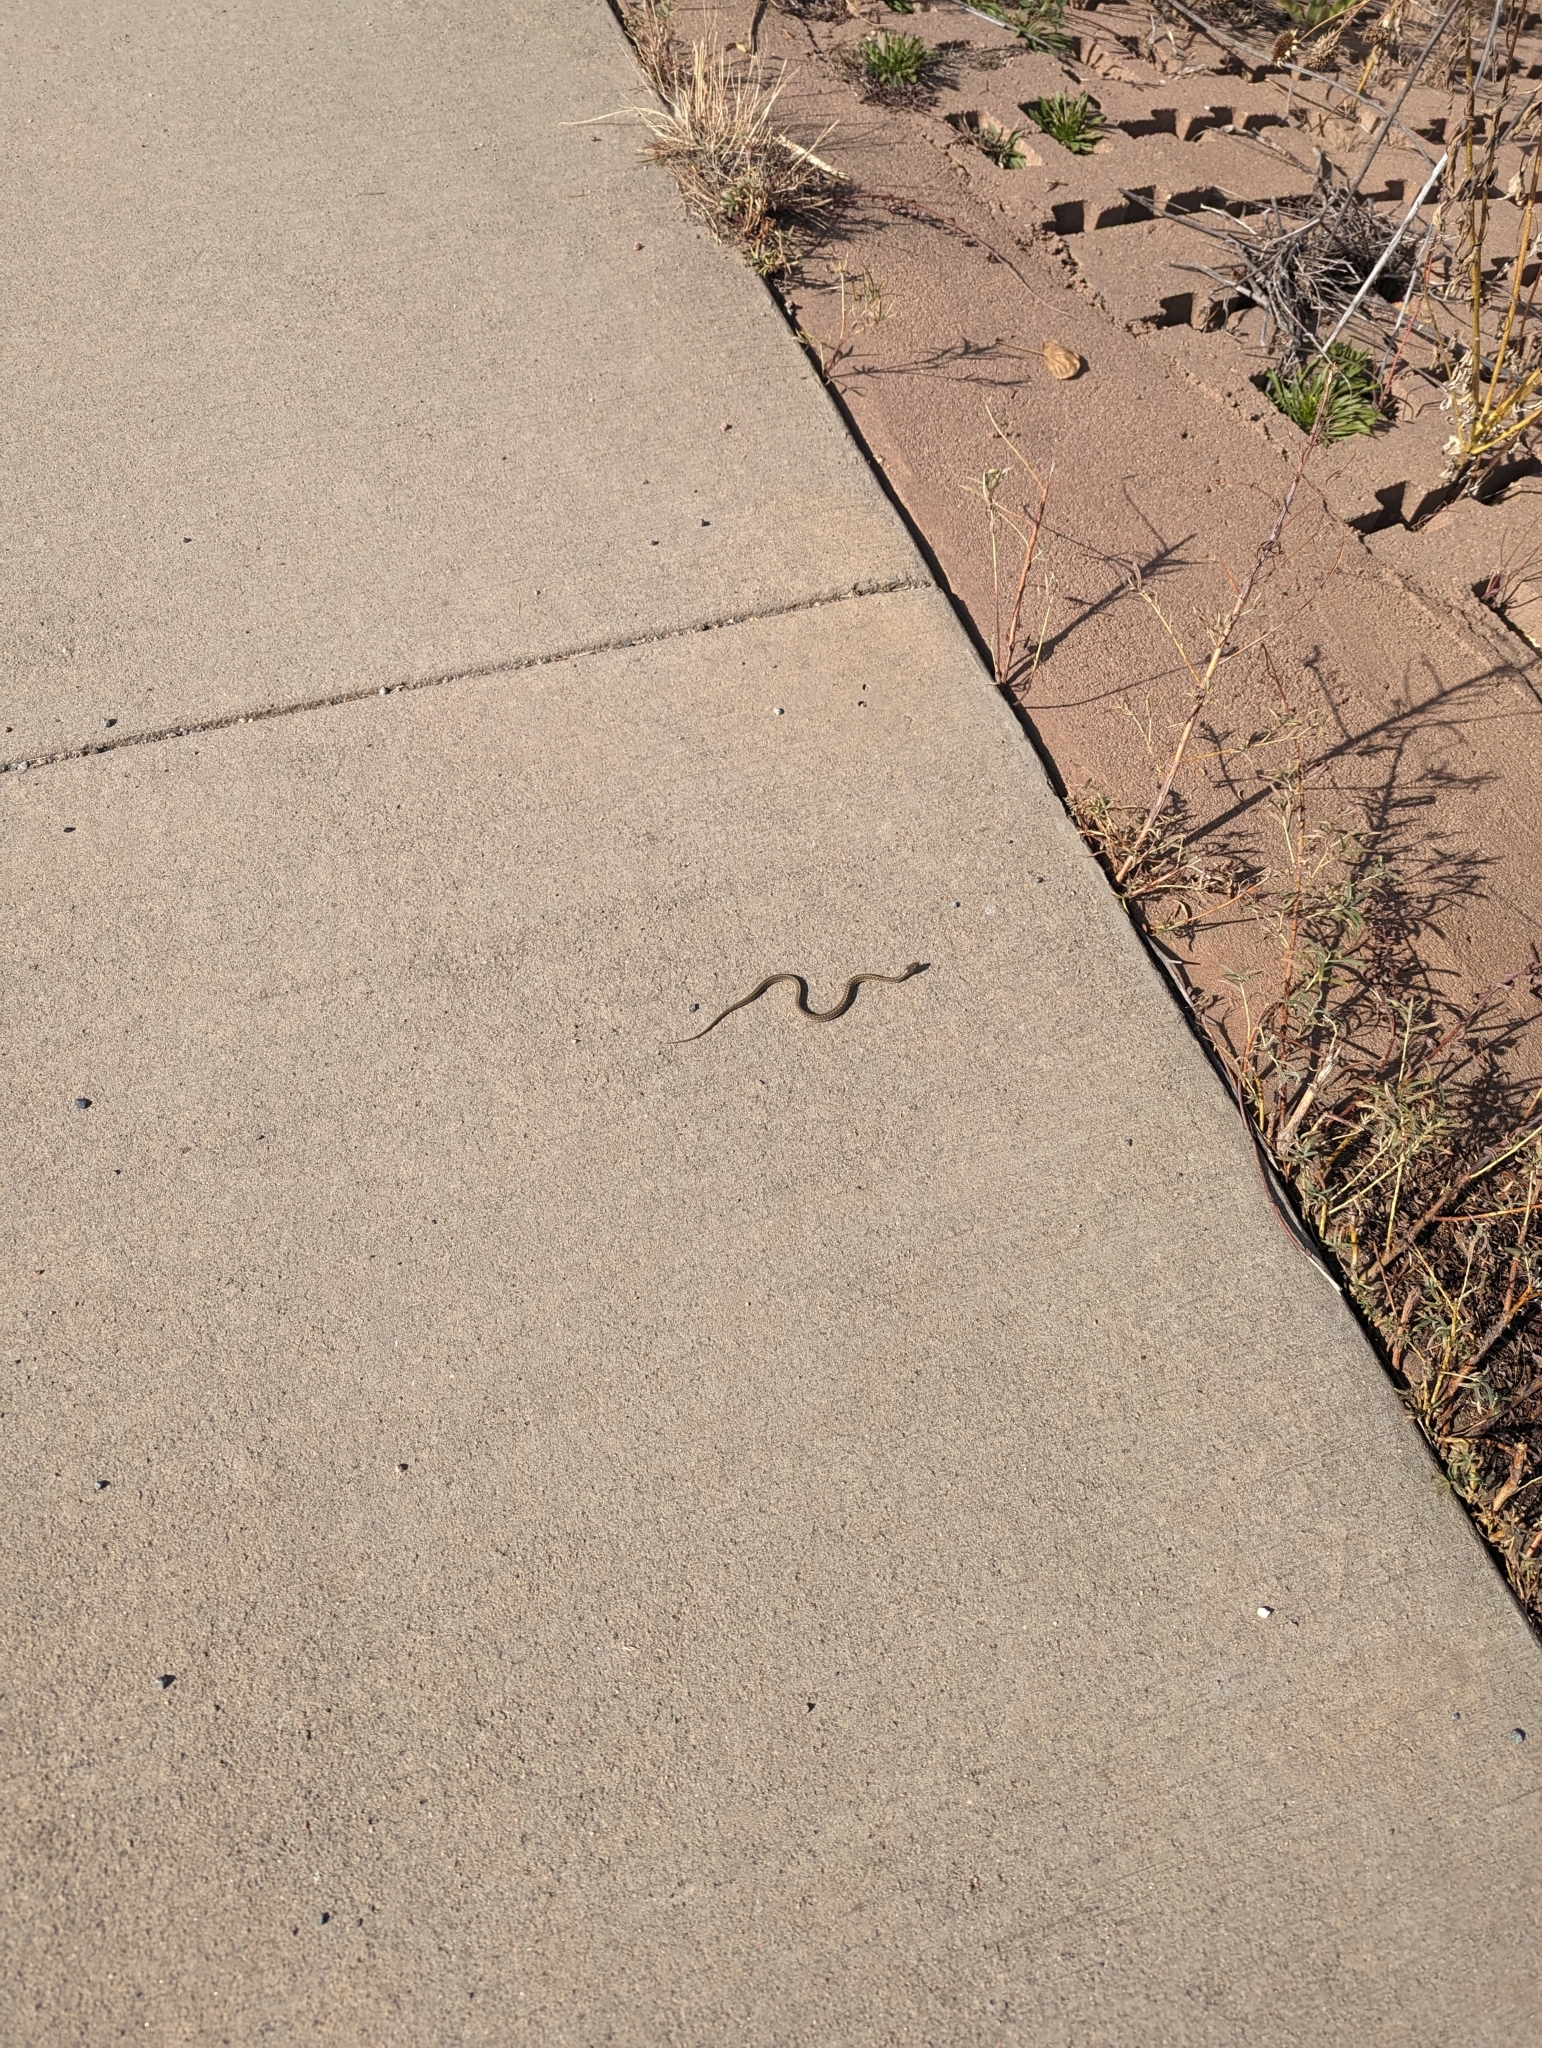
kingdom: Animalia
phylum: Chordata
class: Squamata
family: Colubridae
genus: Thamnophis
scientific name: Thamnophis elegans
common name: Western terrestrial garter snake
